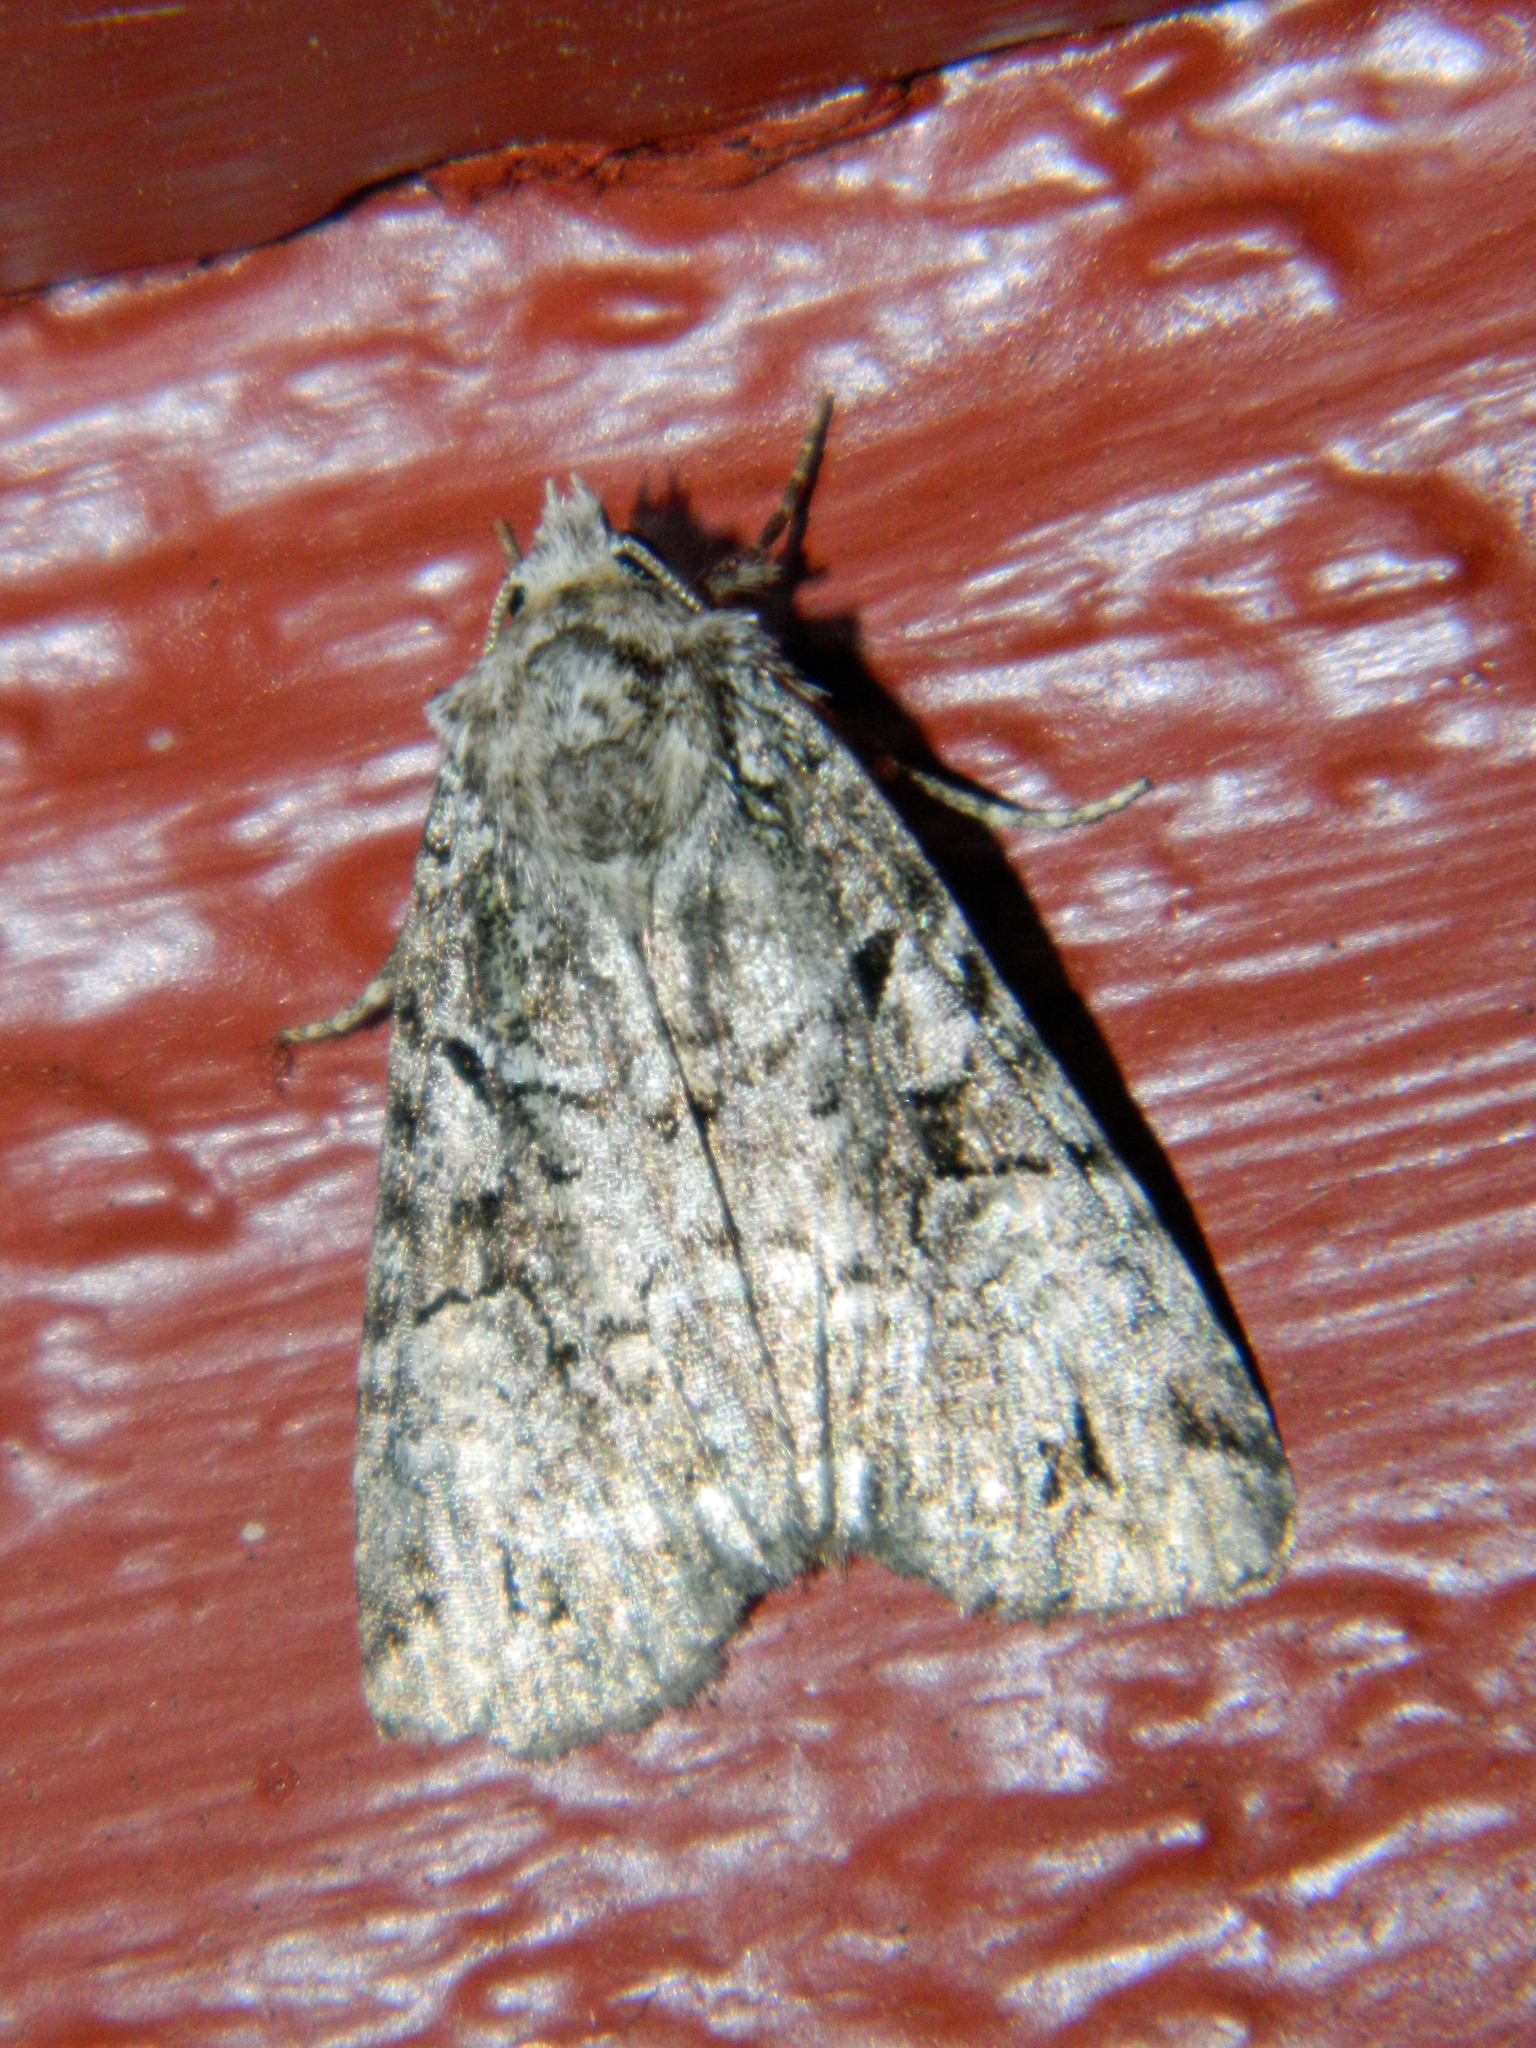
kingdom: Animalia
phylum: Arthropoda
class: Insecta
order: Lepidoptera
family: Noctuidae
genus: Anaplectoides
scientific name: Anaplectoides pressus
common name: Dappled dart
